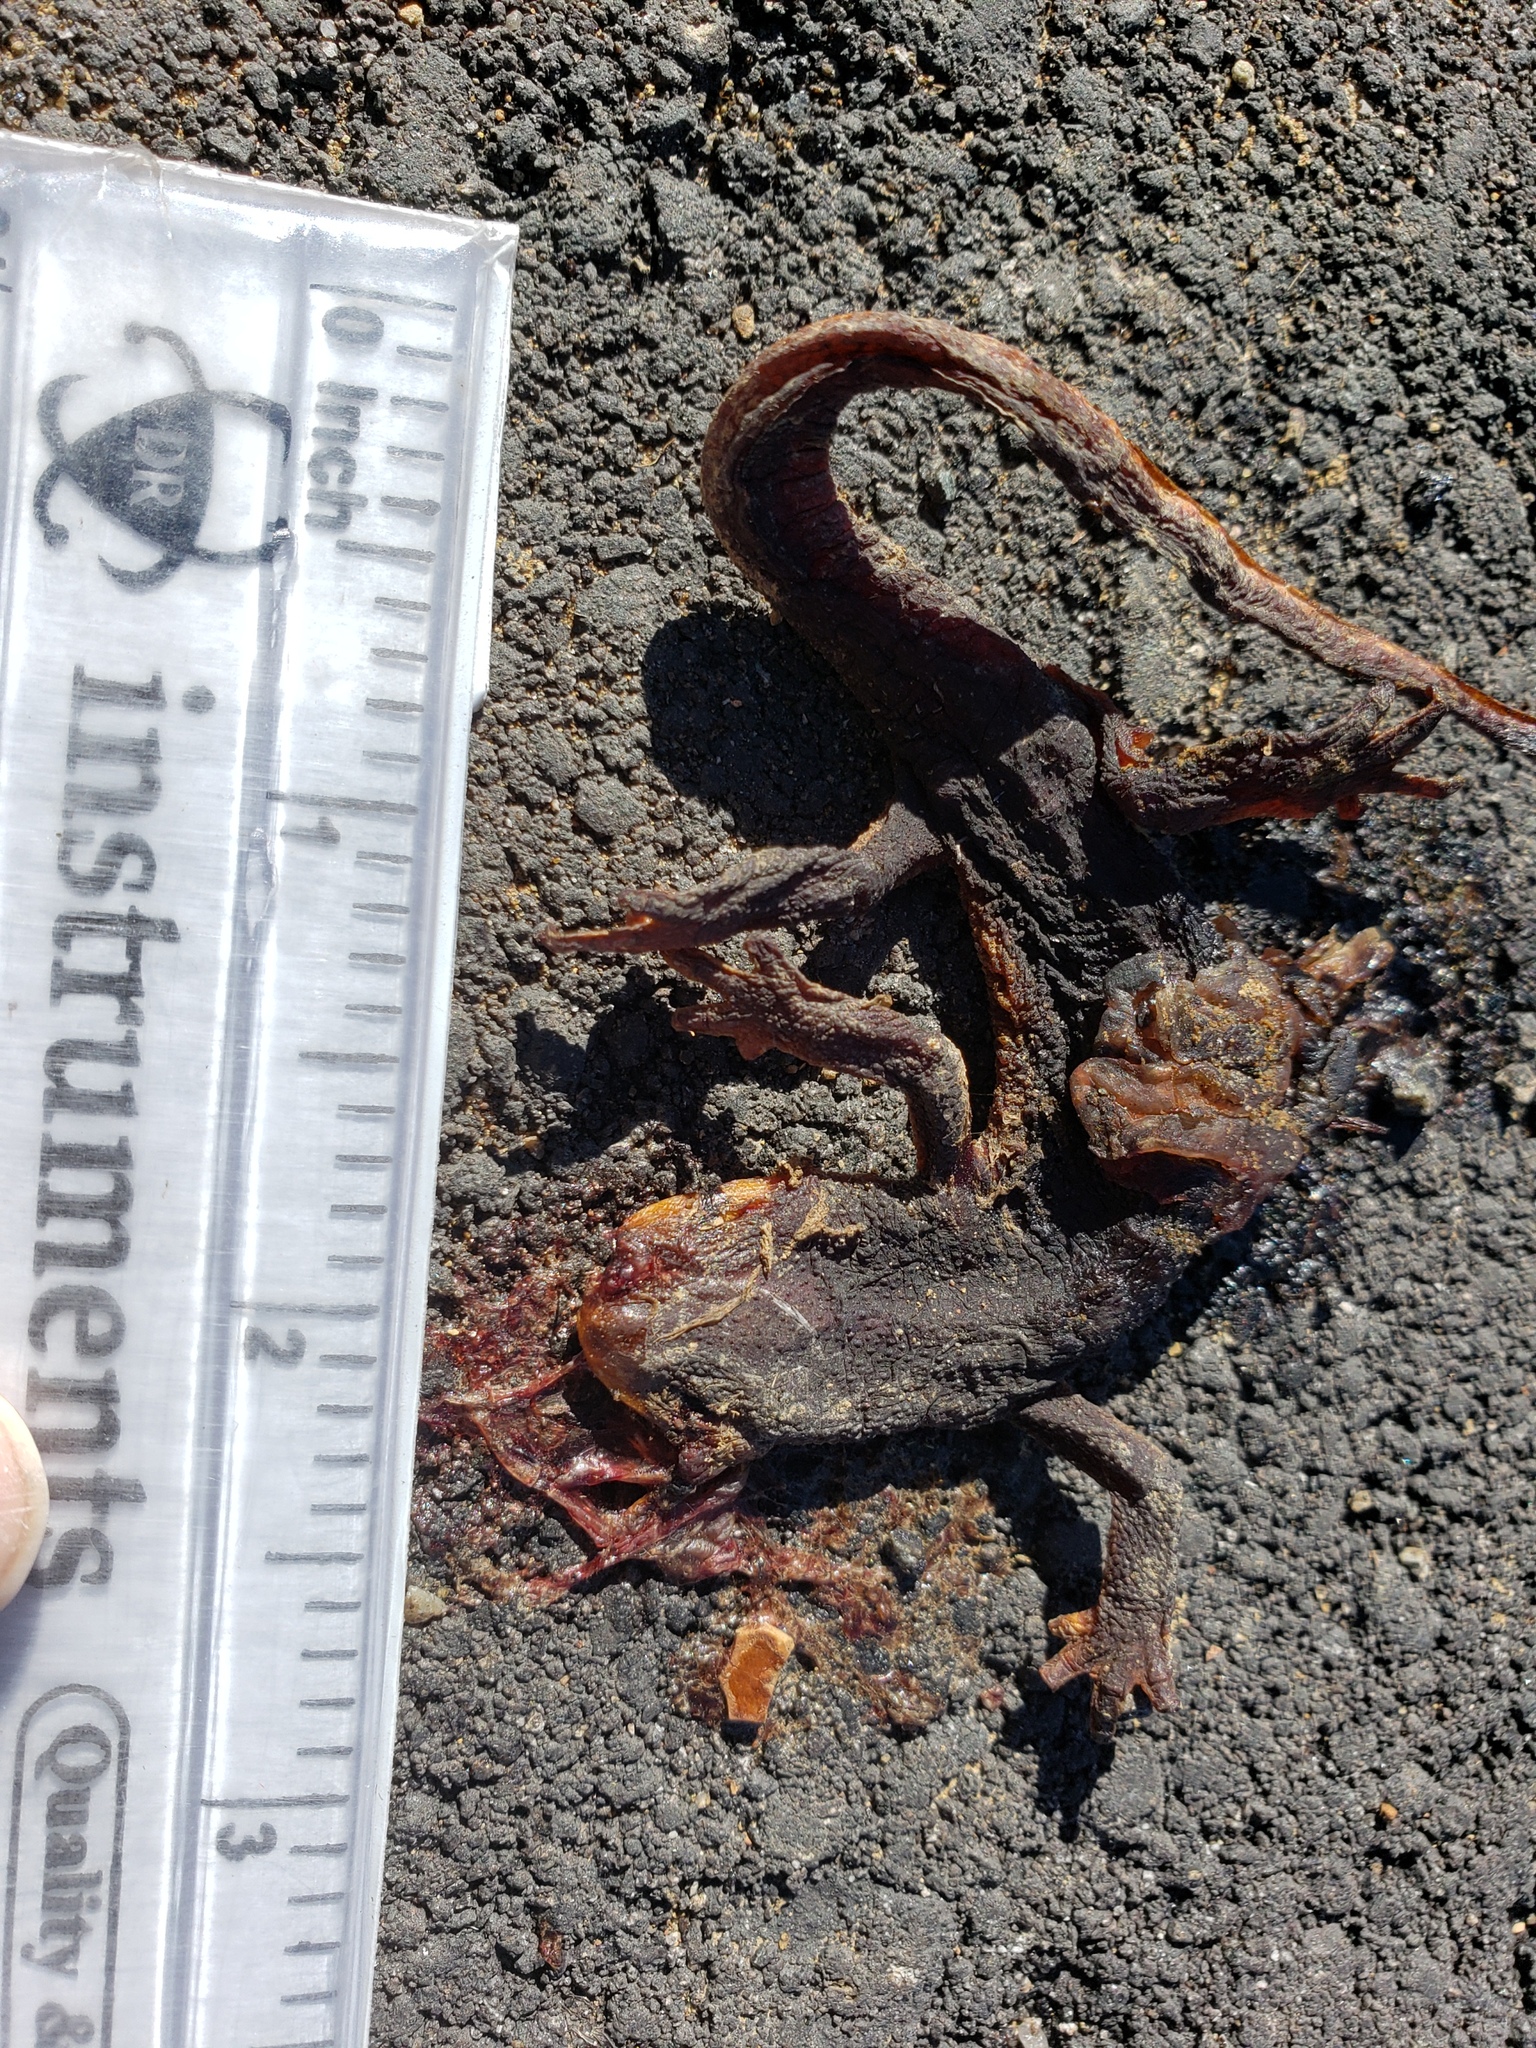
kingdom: Animalia
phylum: Chordata
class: Amphibia
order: Caudata
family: Salamandridae
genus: Taricha
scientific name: Taricha
